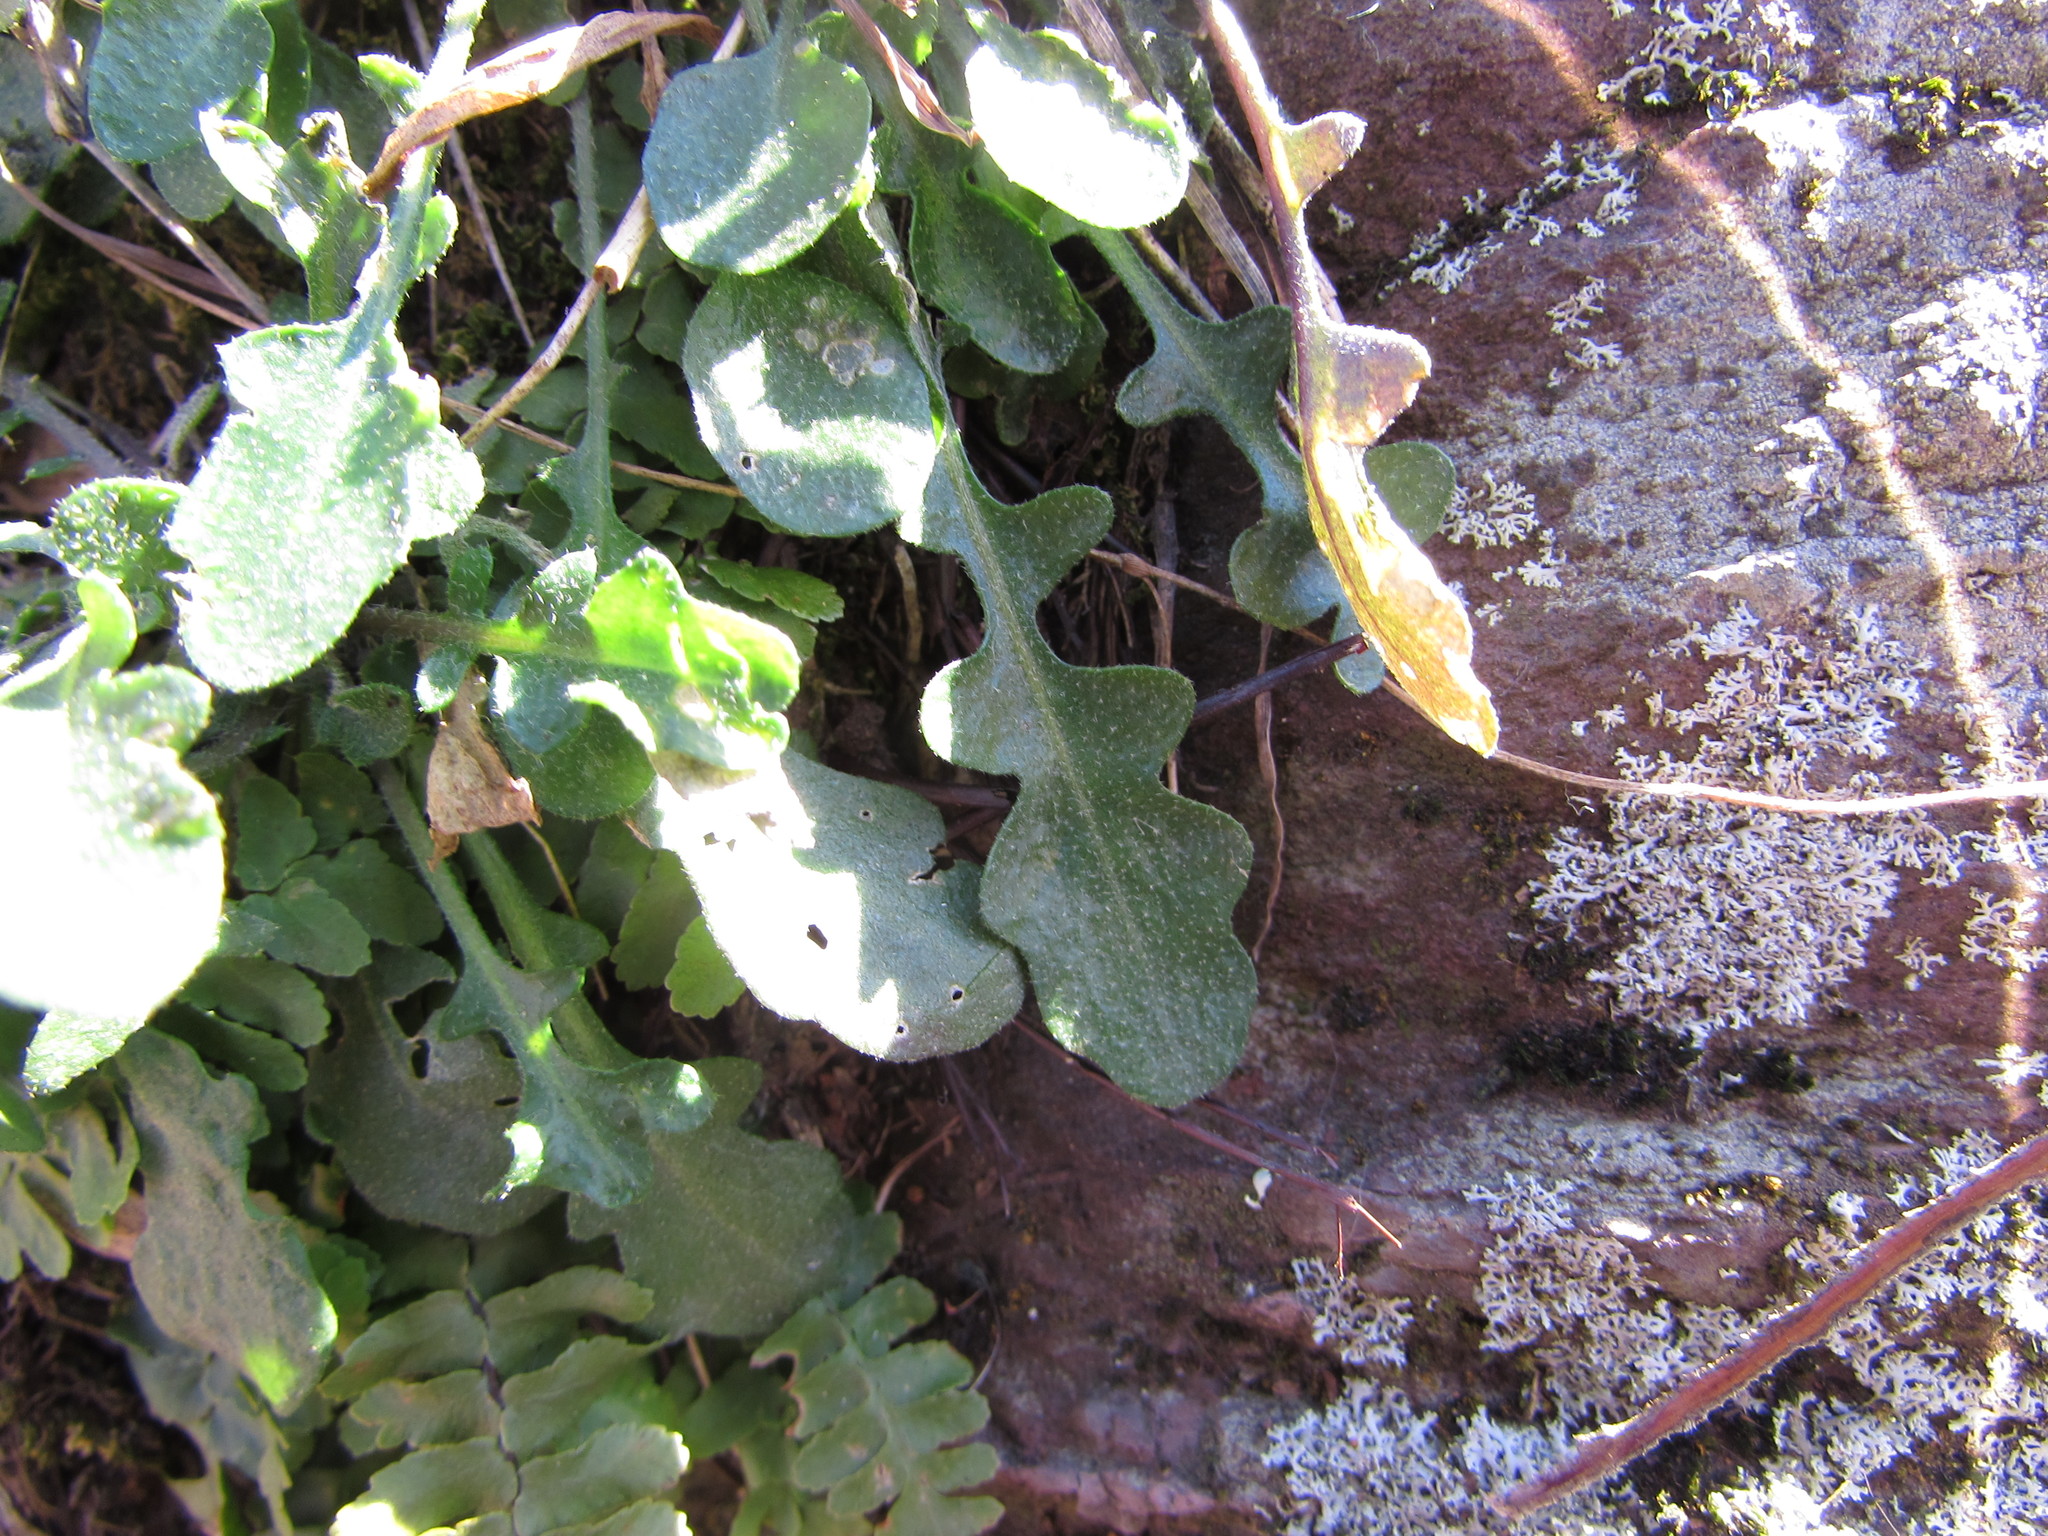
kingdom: Plantae
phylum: Tracheophyta
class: Magnoliopsida
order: Brassicales
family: Brassicaceae
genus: Arabidopsis
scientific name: Arabidopsis lyrata
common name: Lyrate rockcress
